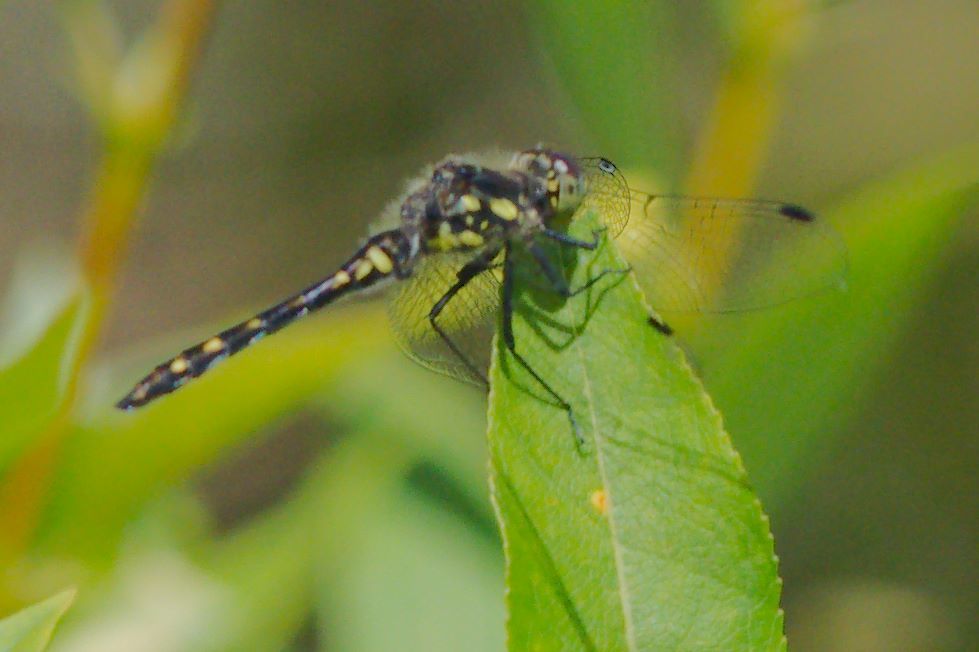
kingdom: Animalia
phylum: Arthropoda
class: Insecta
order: Odonata
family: Libellulidae
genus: Sympetrum
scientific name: Sympetrum danae
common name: Black darter
